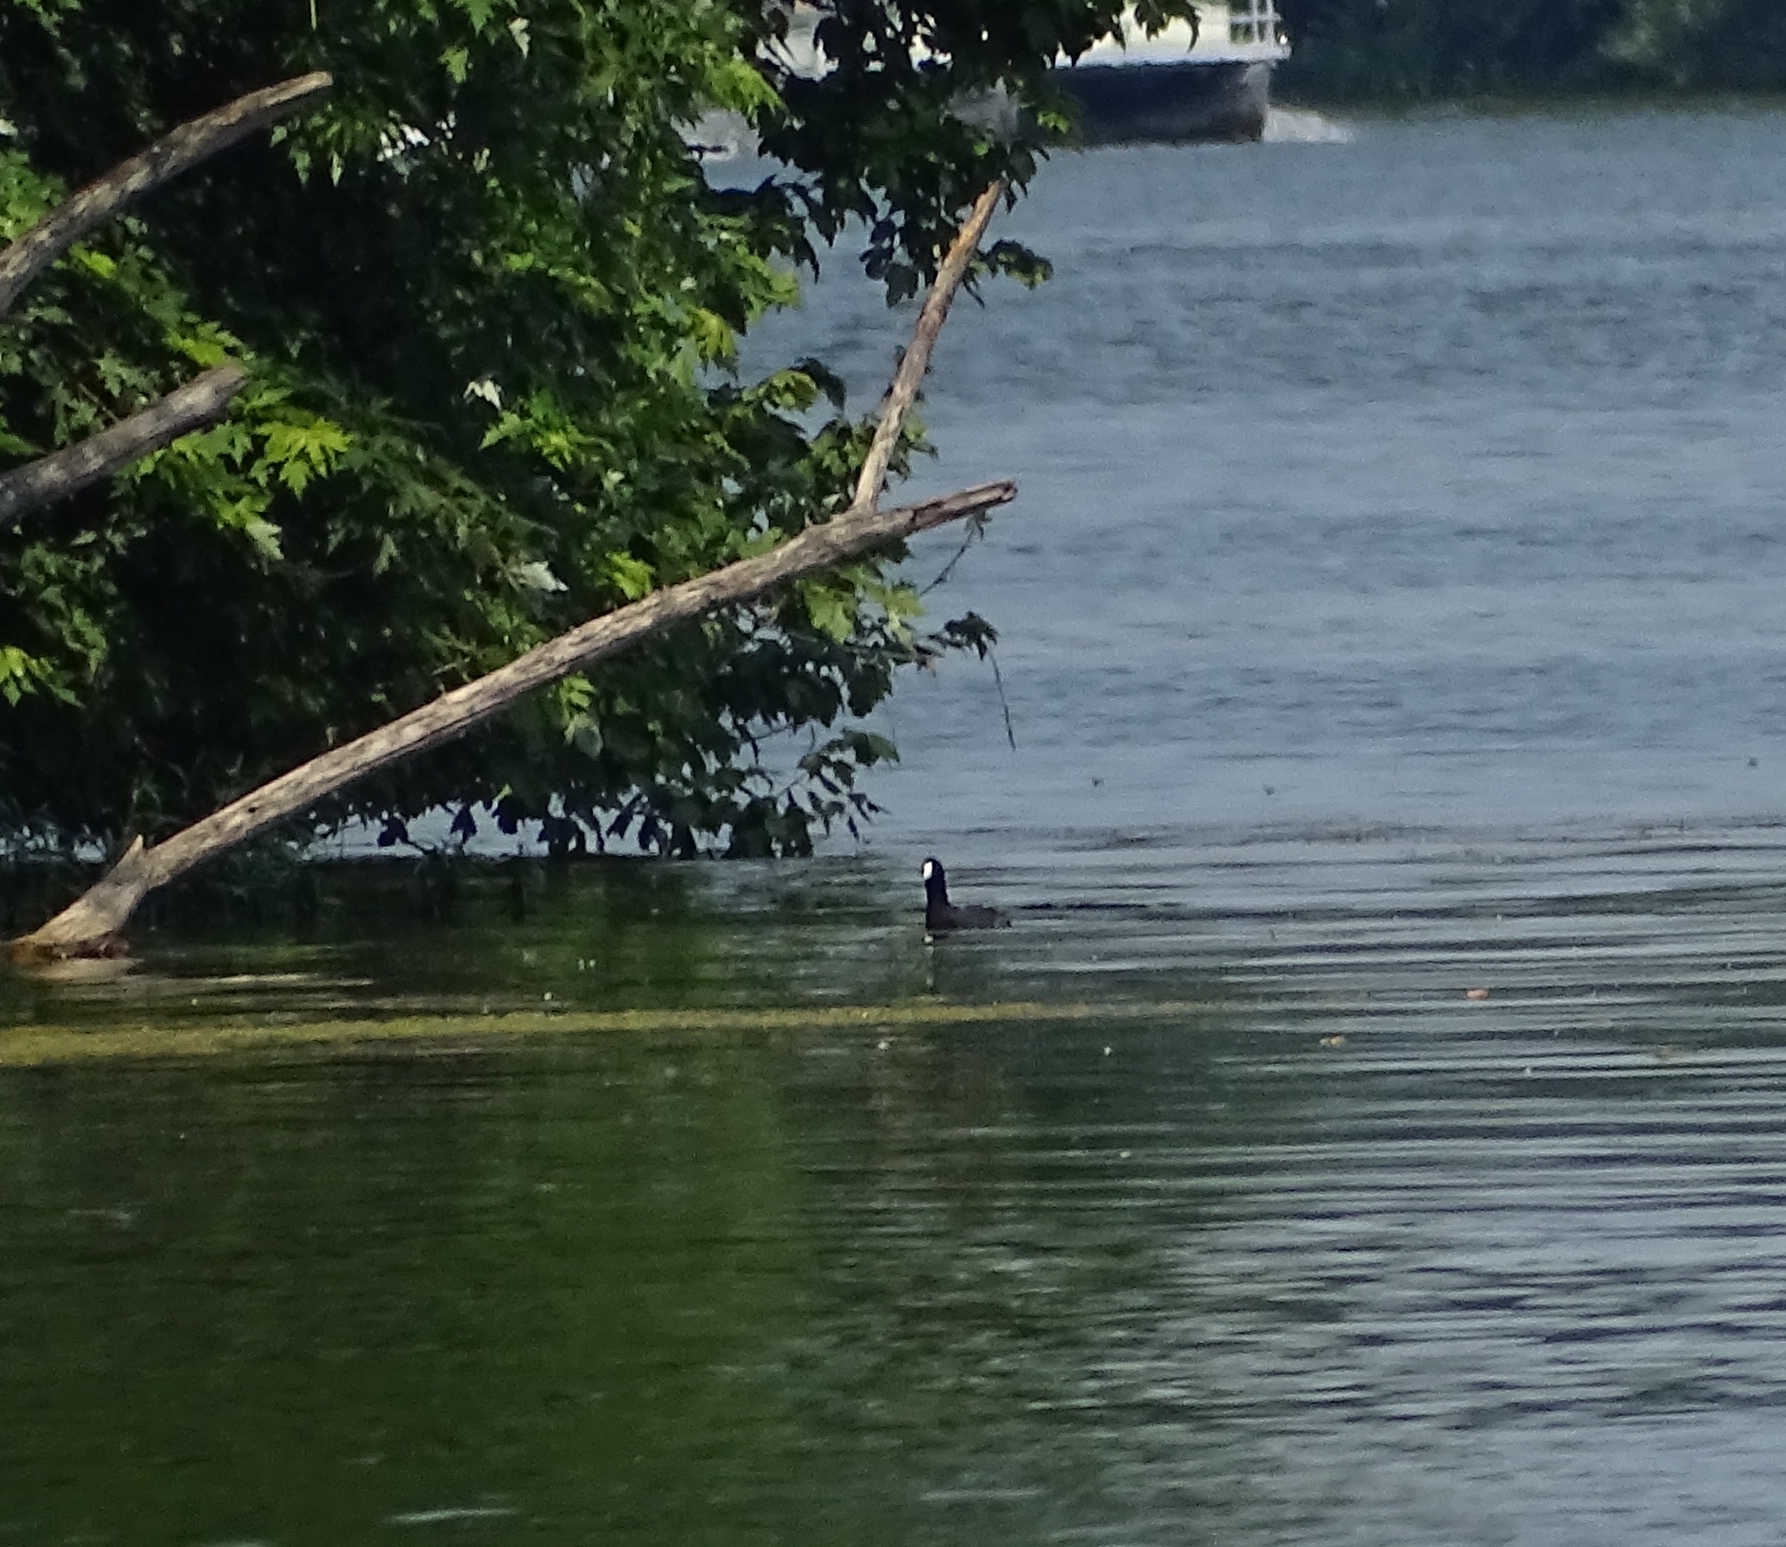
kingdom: Animalia
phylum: Chordata
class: Aves
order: Gruiformes
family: Rallidae
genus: Fulica
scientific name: Fulica americana
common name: American coot
